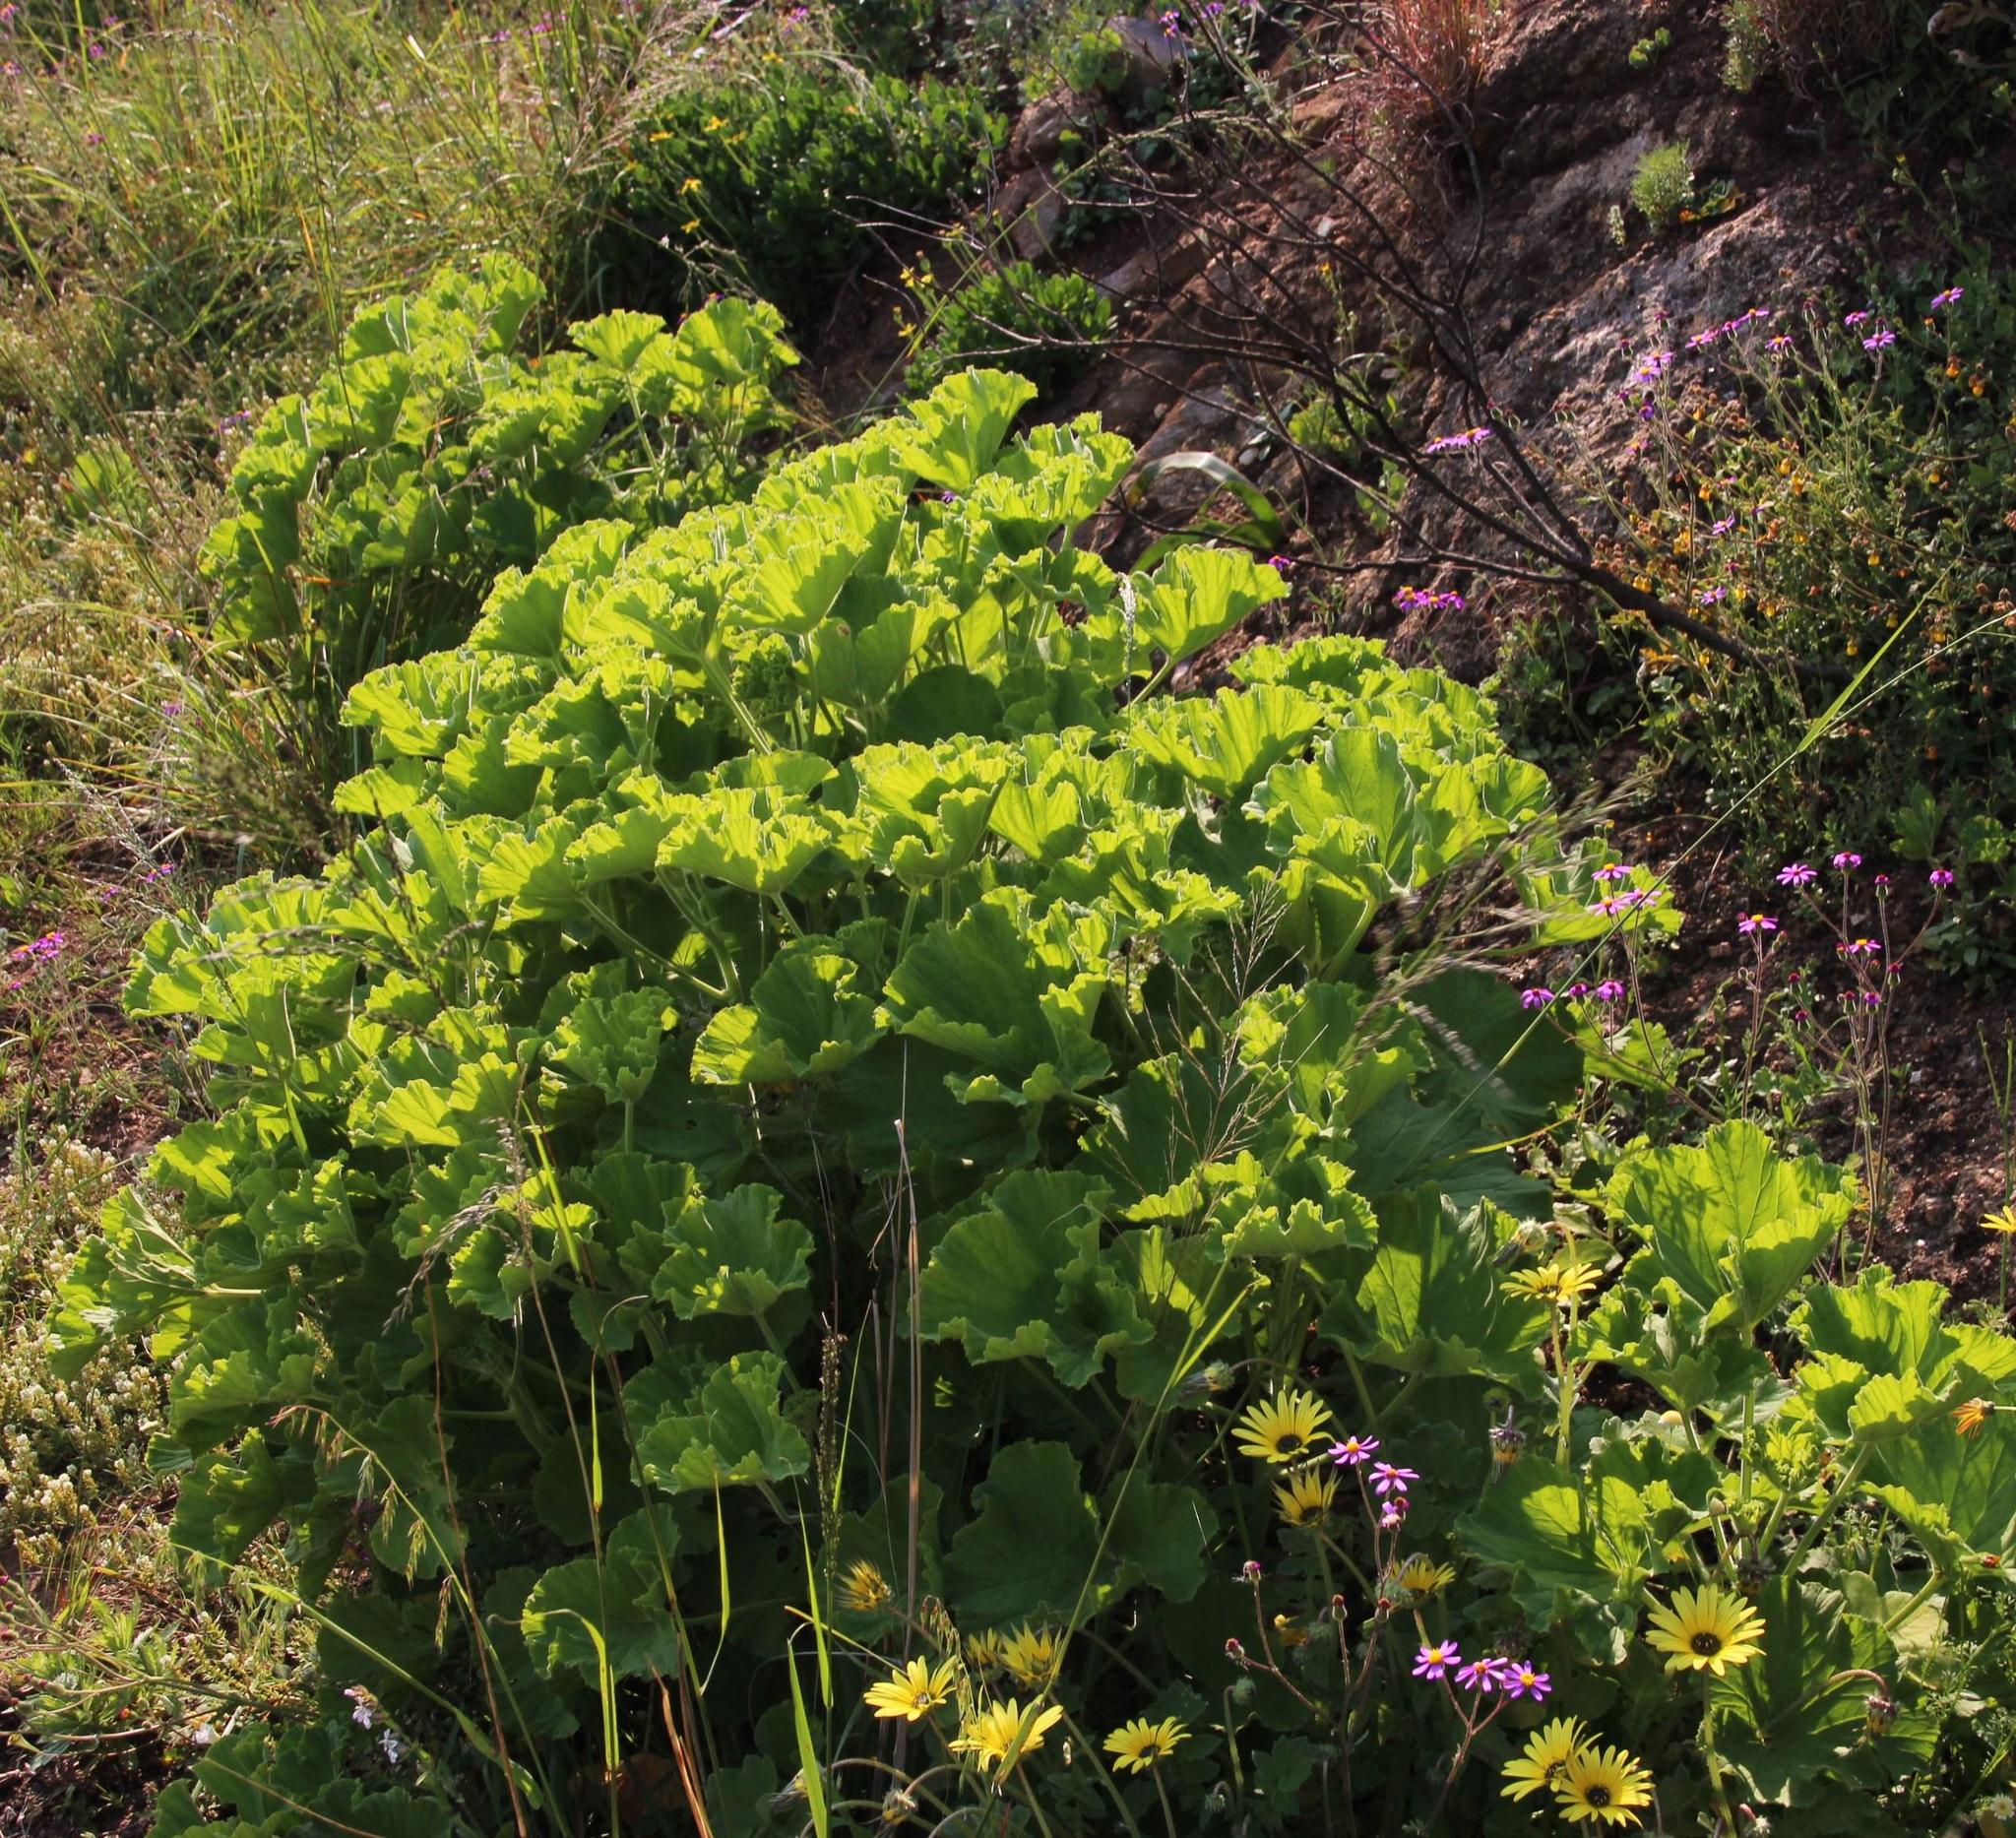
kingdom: Plantae
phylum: Tracheophyta
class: Magnoliopsida
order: Geraniales
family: Geraniaceae
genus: Pelargonium
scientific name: Pelargonium cucullatum
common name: Tree pelargonium
